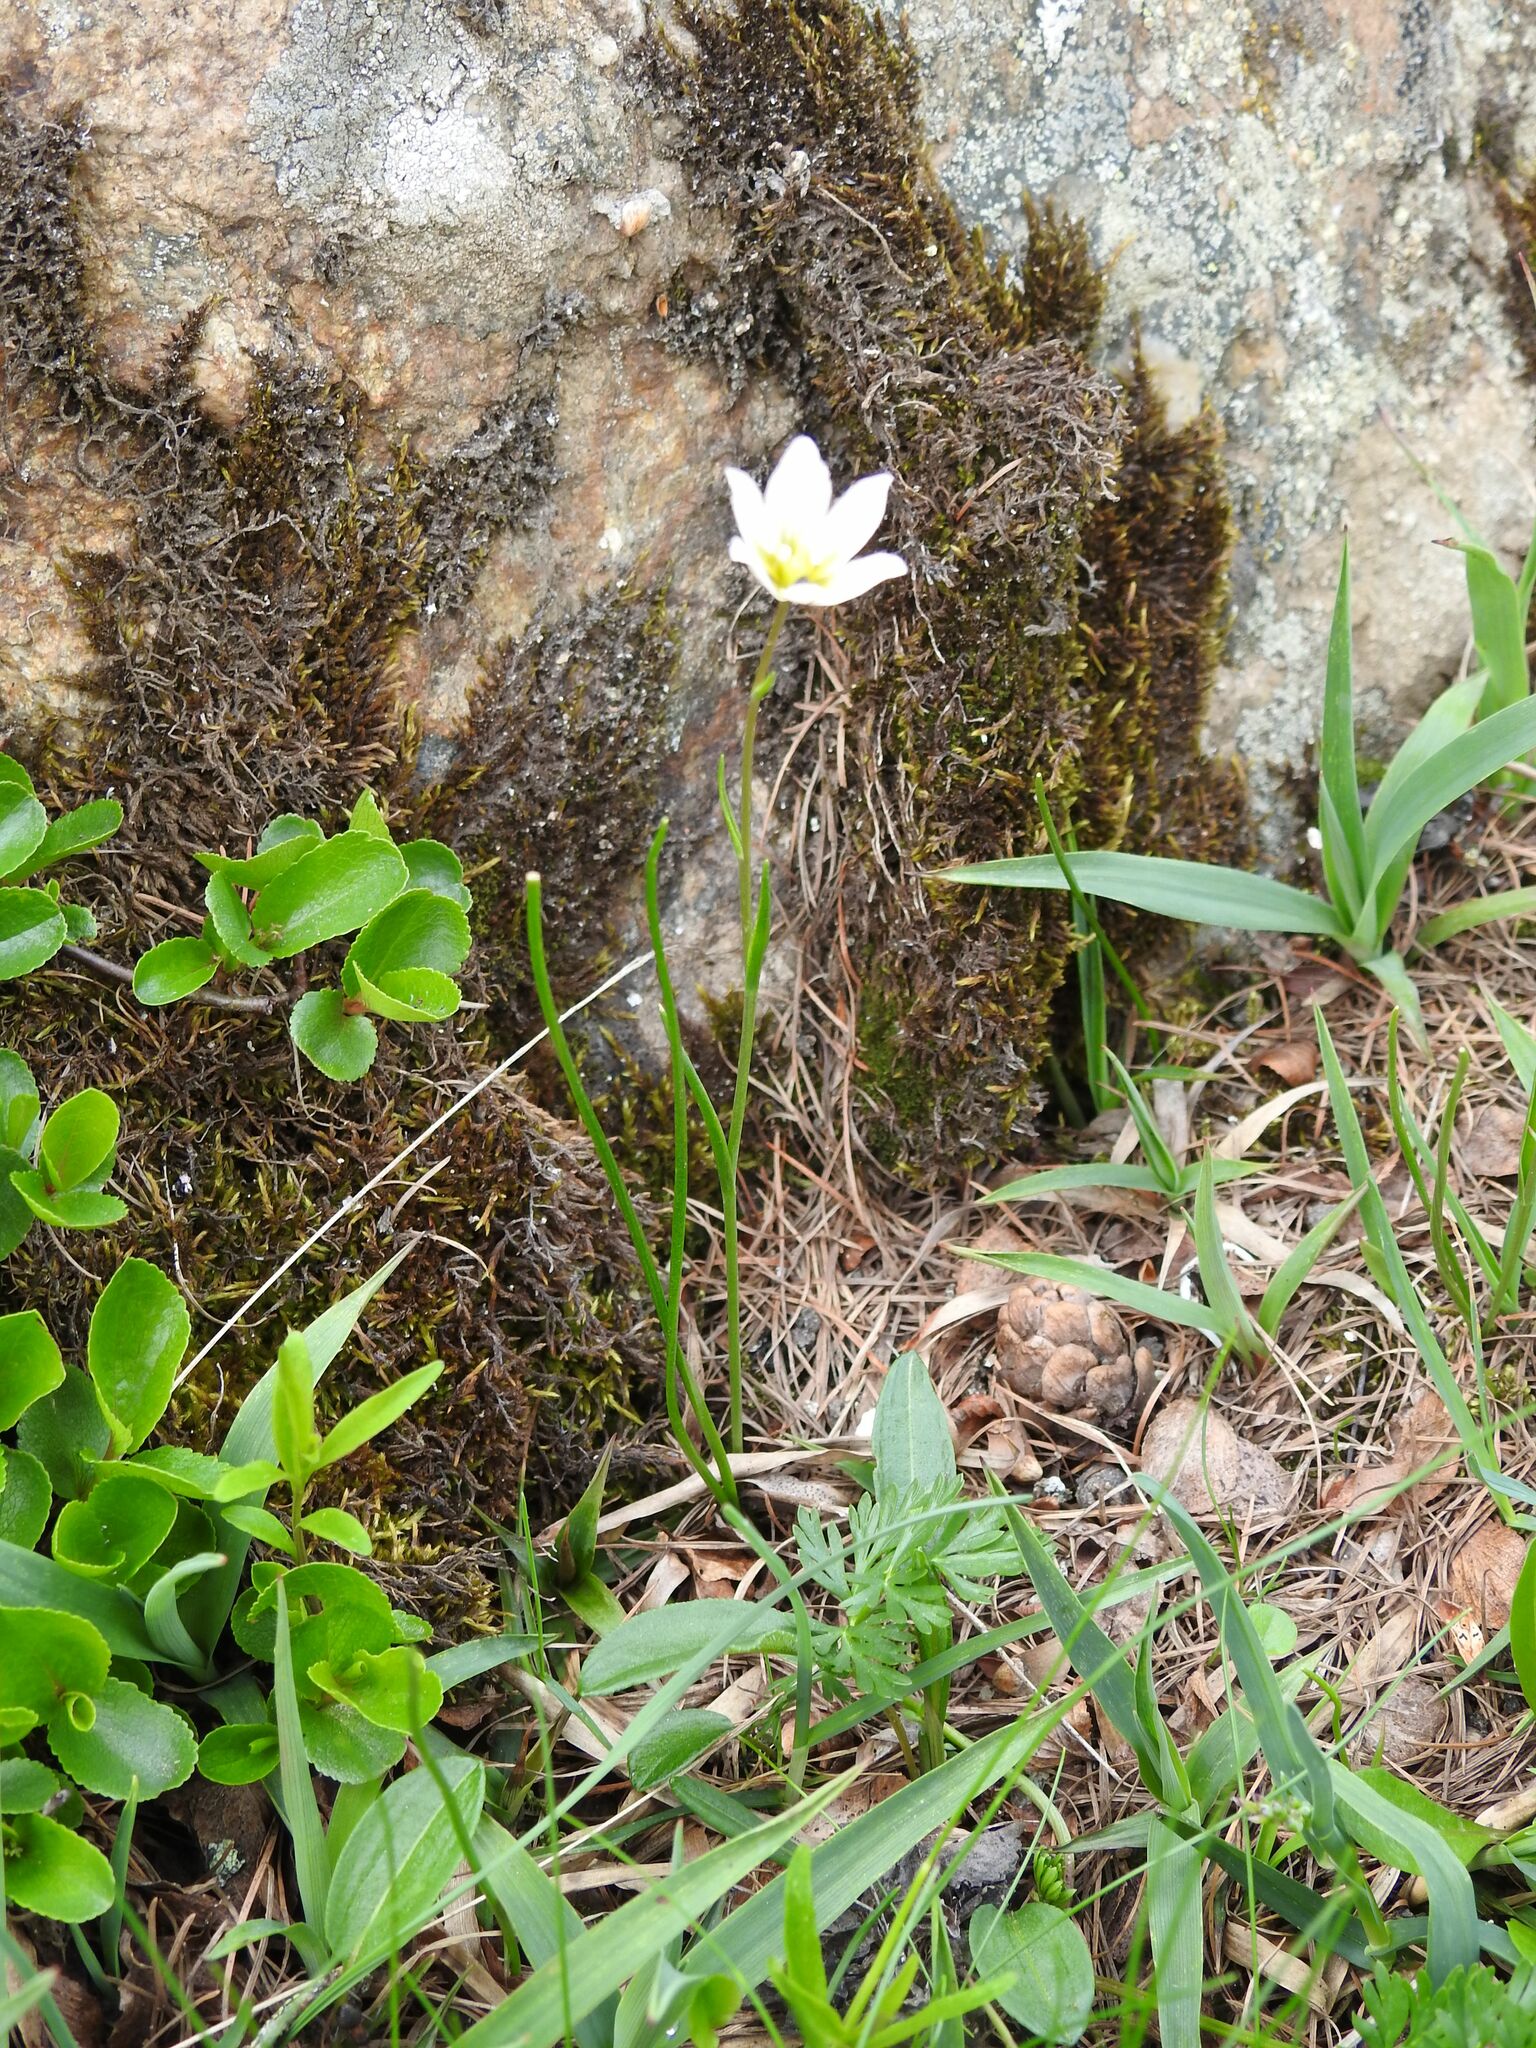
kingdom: Plantae
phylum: Tracheophyta
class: Liliopsida
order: Liliales
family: Liliaceae
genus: Gagea
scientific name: Gagea serotina
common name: Snowdon lily
